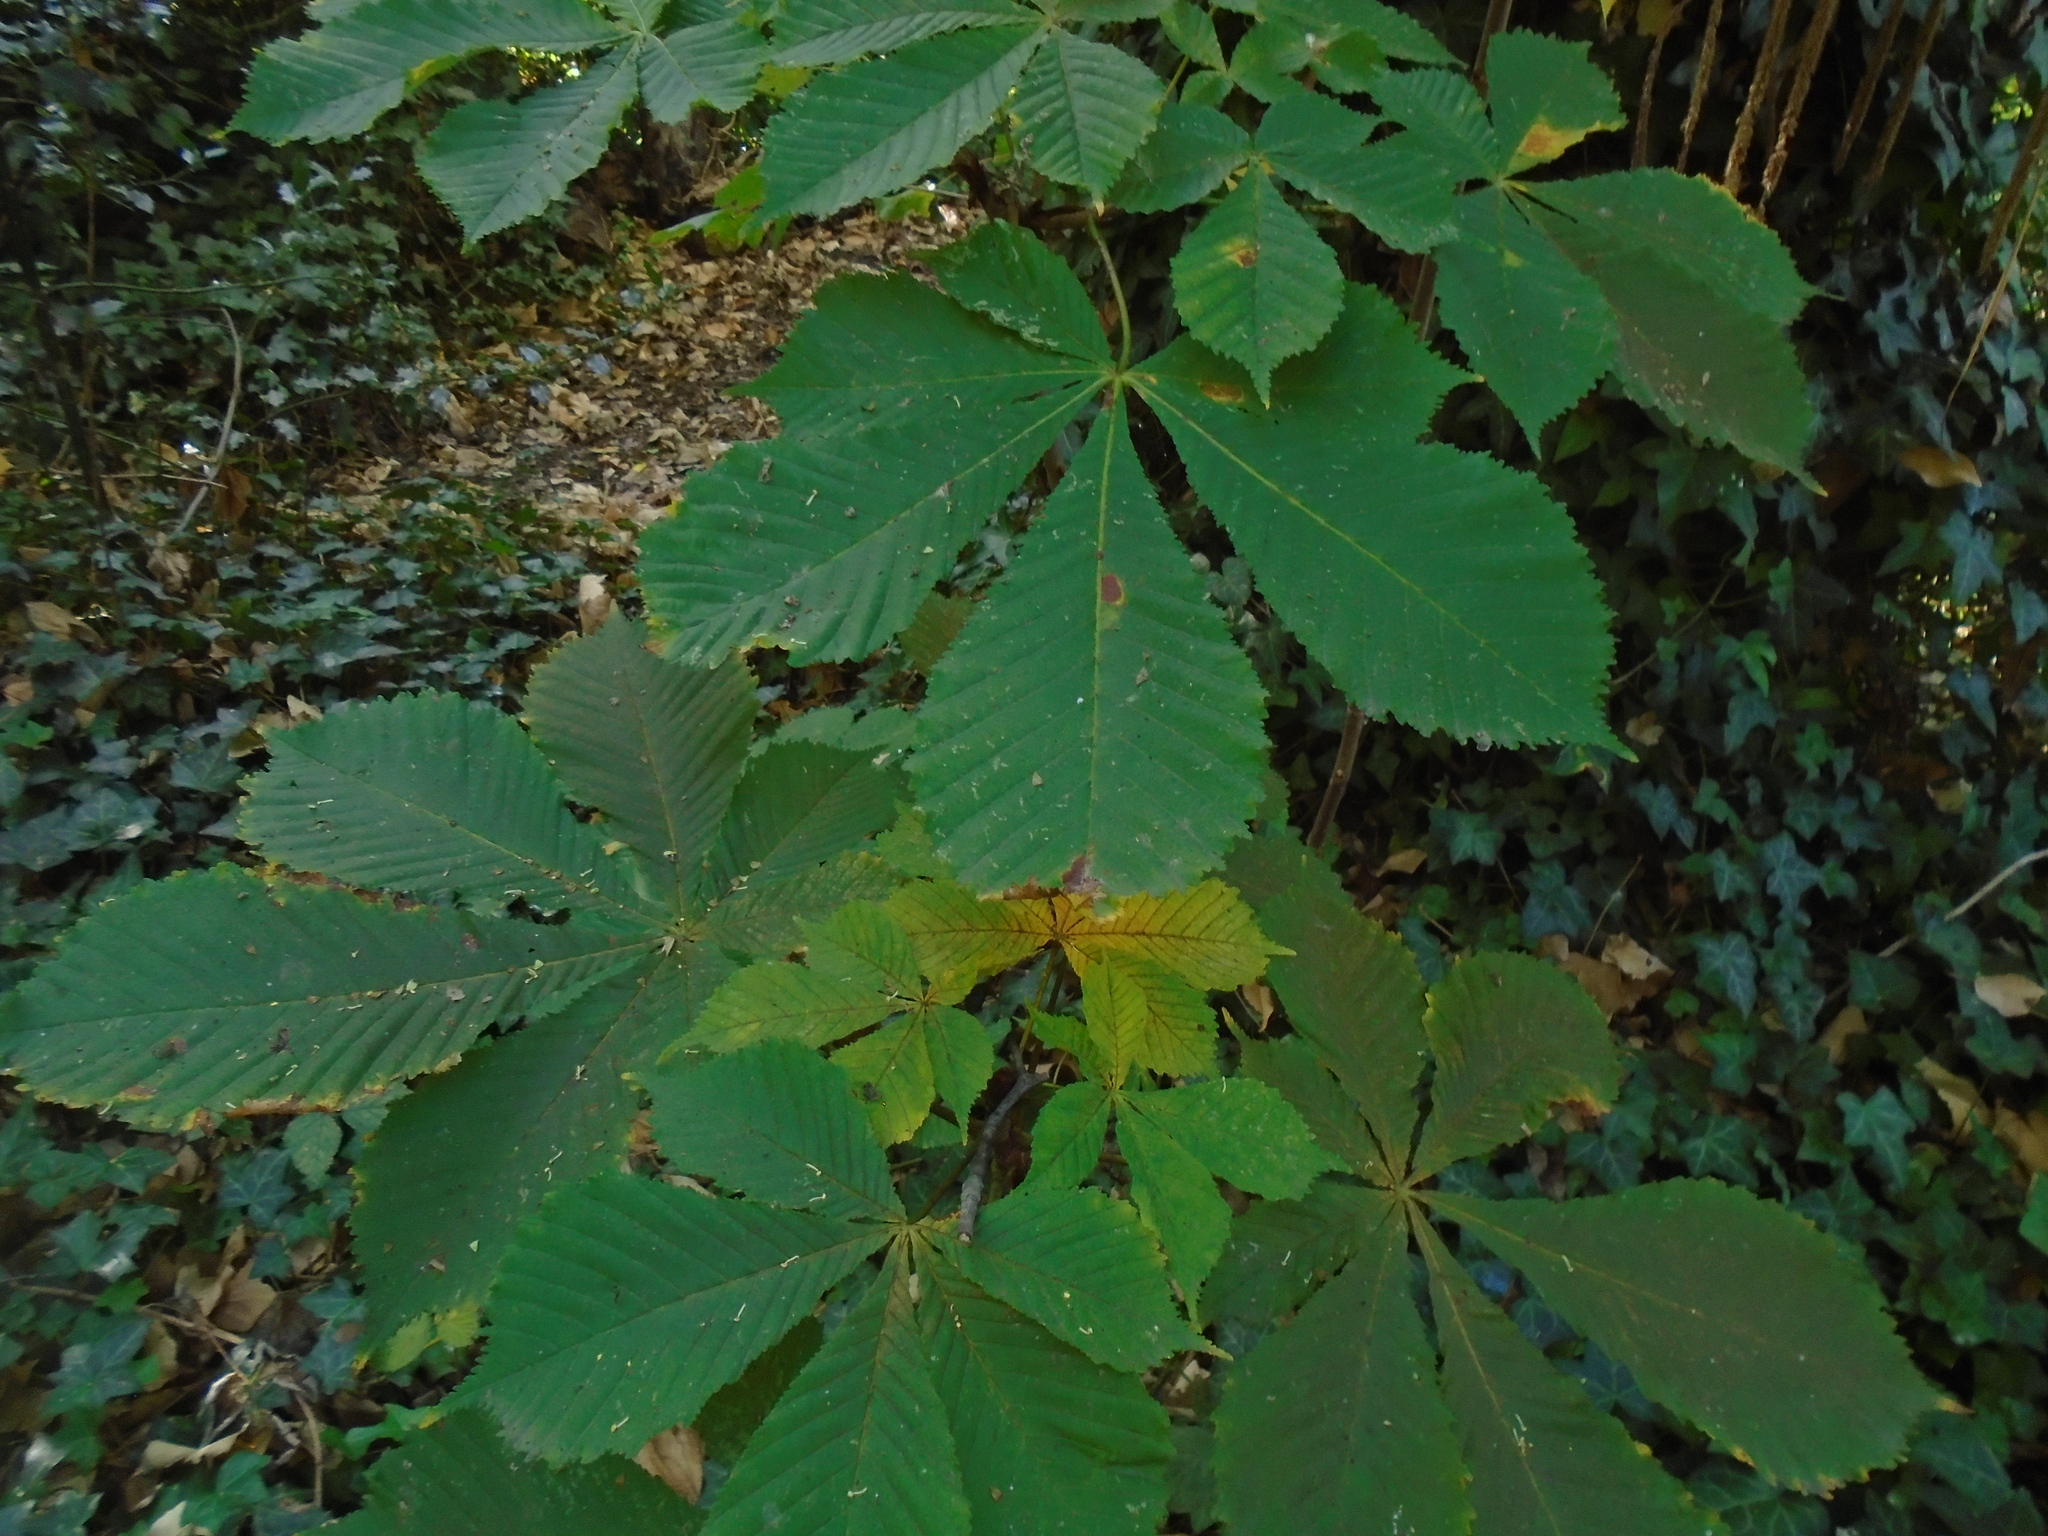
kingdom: Plantae
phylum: Tracheophyta
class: Magnoliopsida
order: Sapindales
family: Sapindaceae
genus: Aesculus
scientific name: Aesculus hippocastanum
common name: Horse-chestnut
